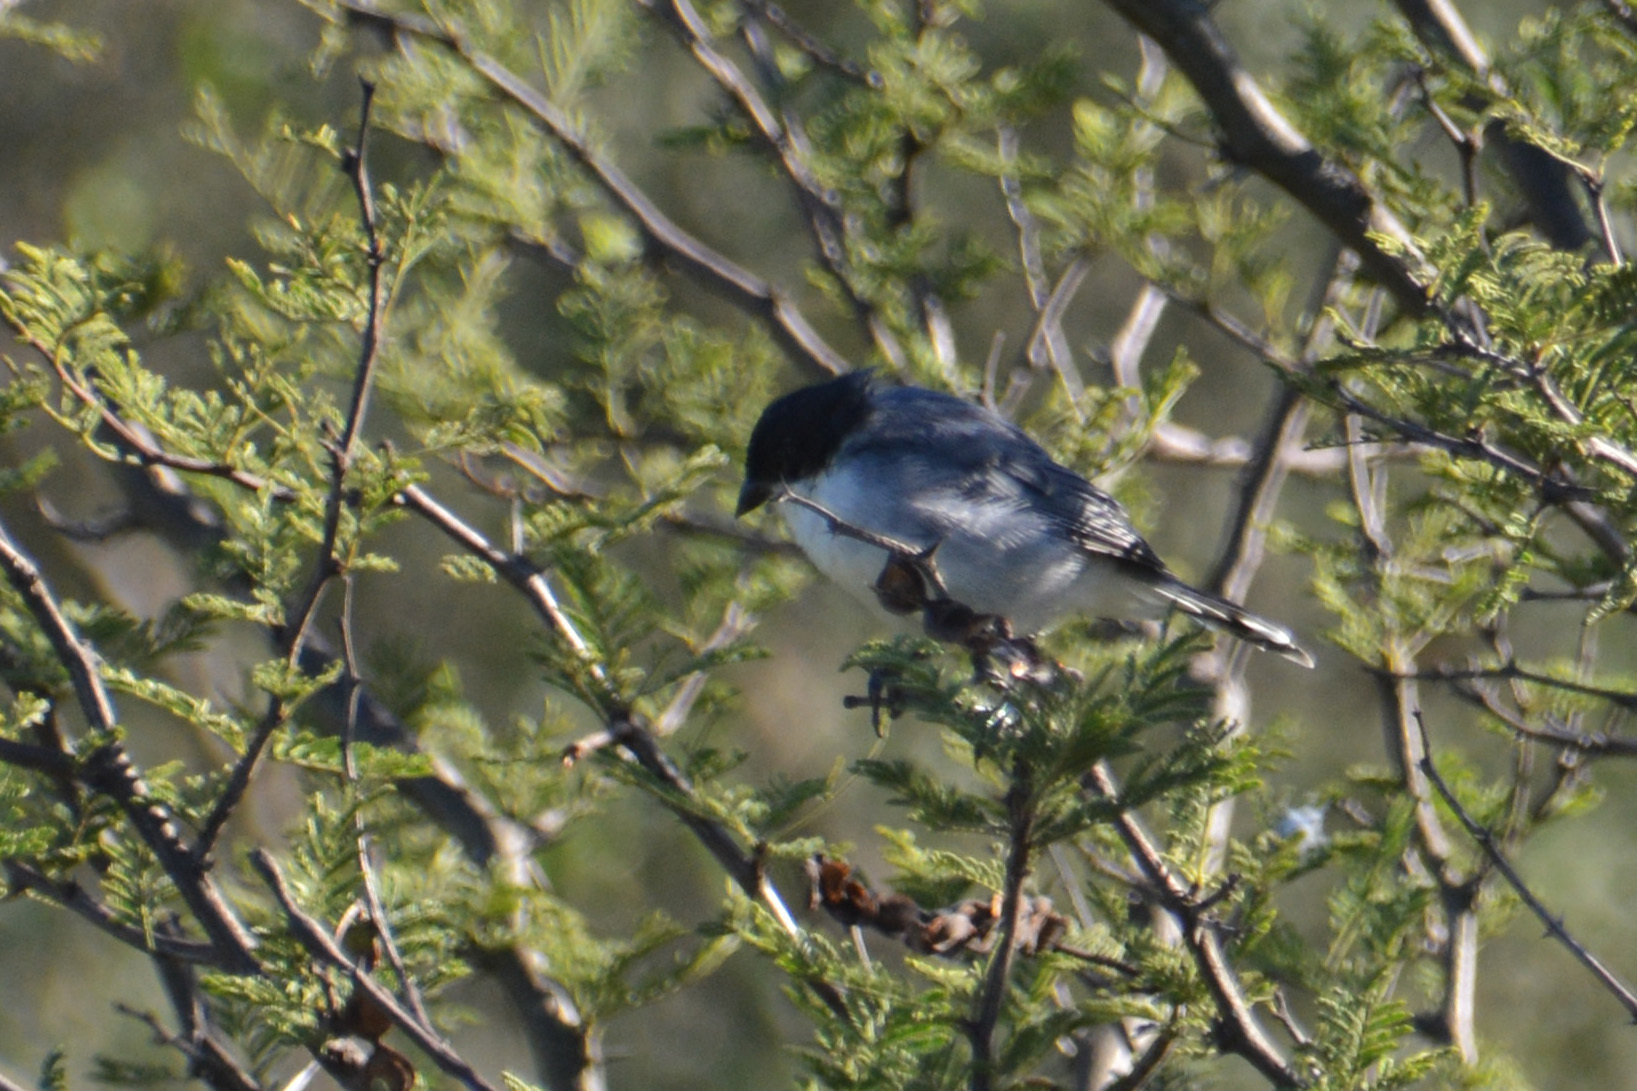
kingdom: Animalia
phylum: Chordata
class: Aves
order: Passeriformes
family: Thraupidae
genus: Microspingus
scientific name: Microspingus melanoleucus
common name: Black-capped warbling-finch
